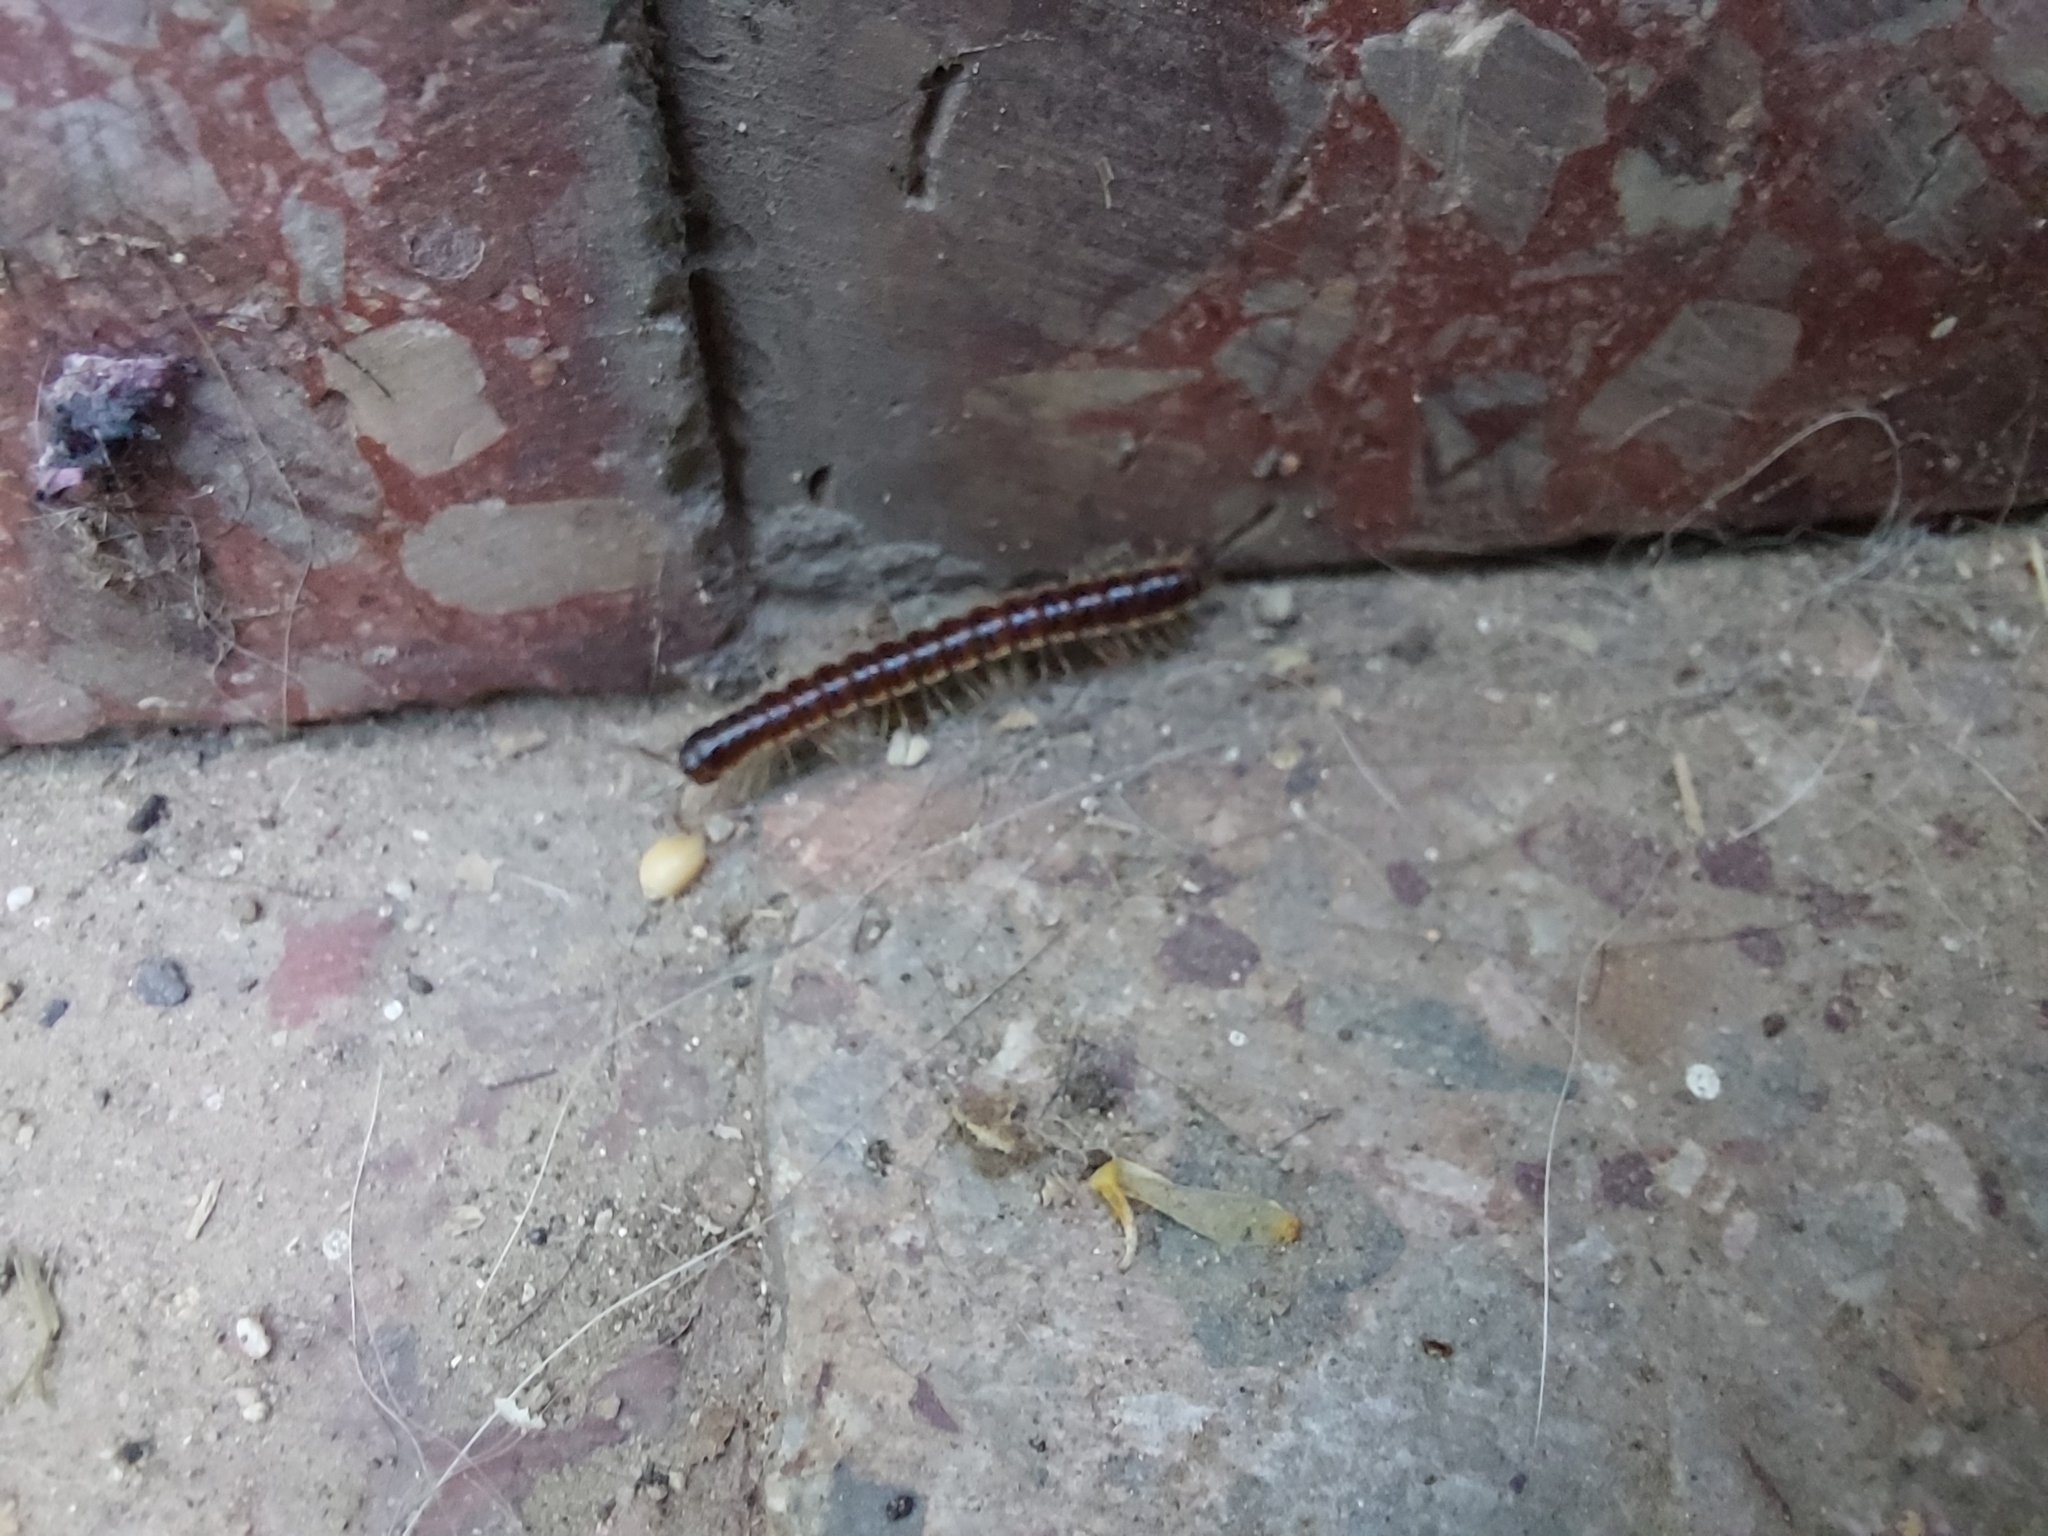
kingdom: Animalia
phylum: Arthropoda
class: Diplopoda
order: Polydesmida
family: Paradoxosomatidae
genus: Oxidus
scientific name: Oxidus gracilis
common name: Greenhouse millipede
